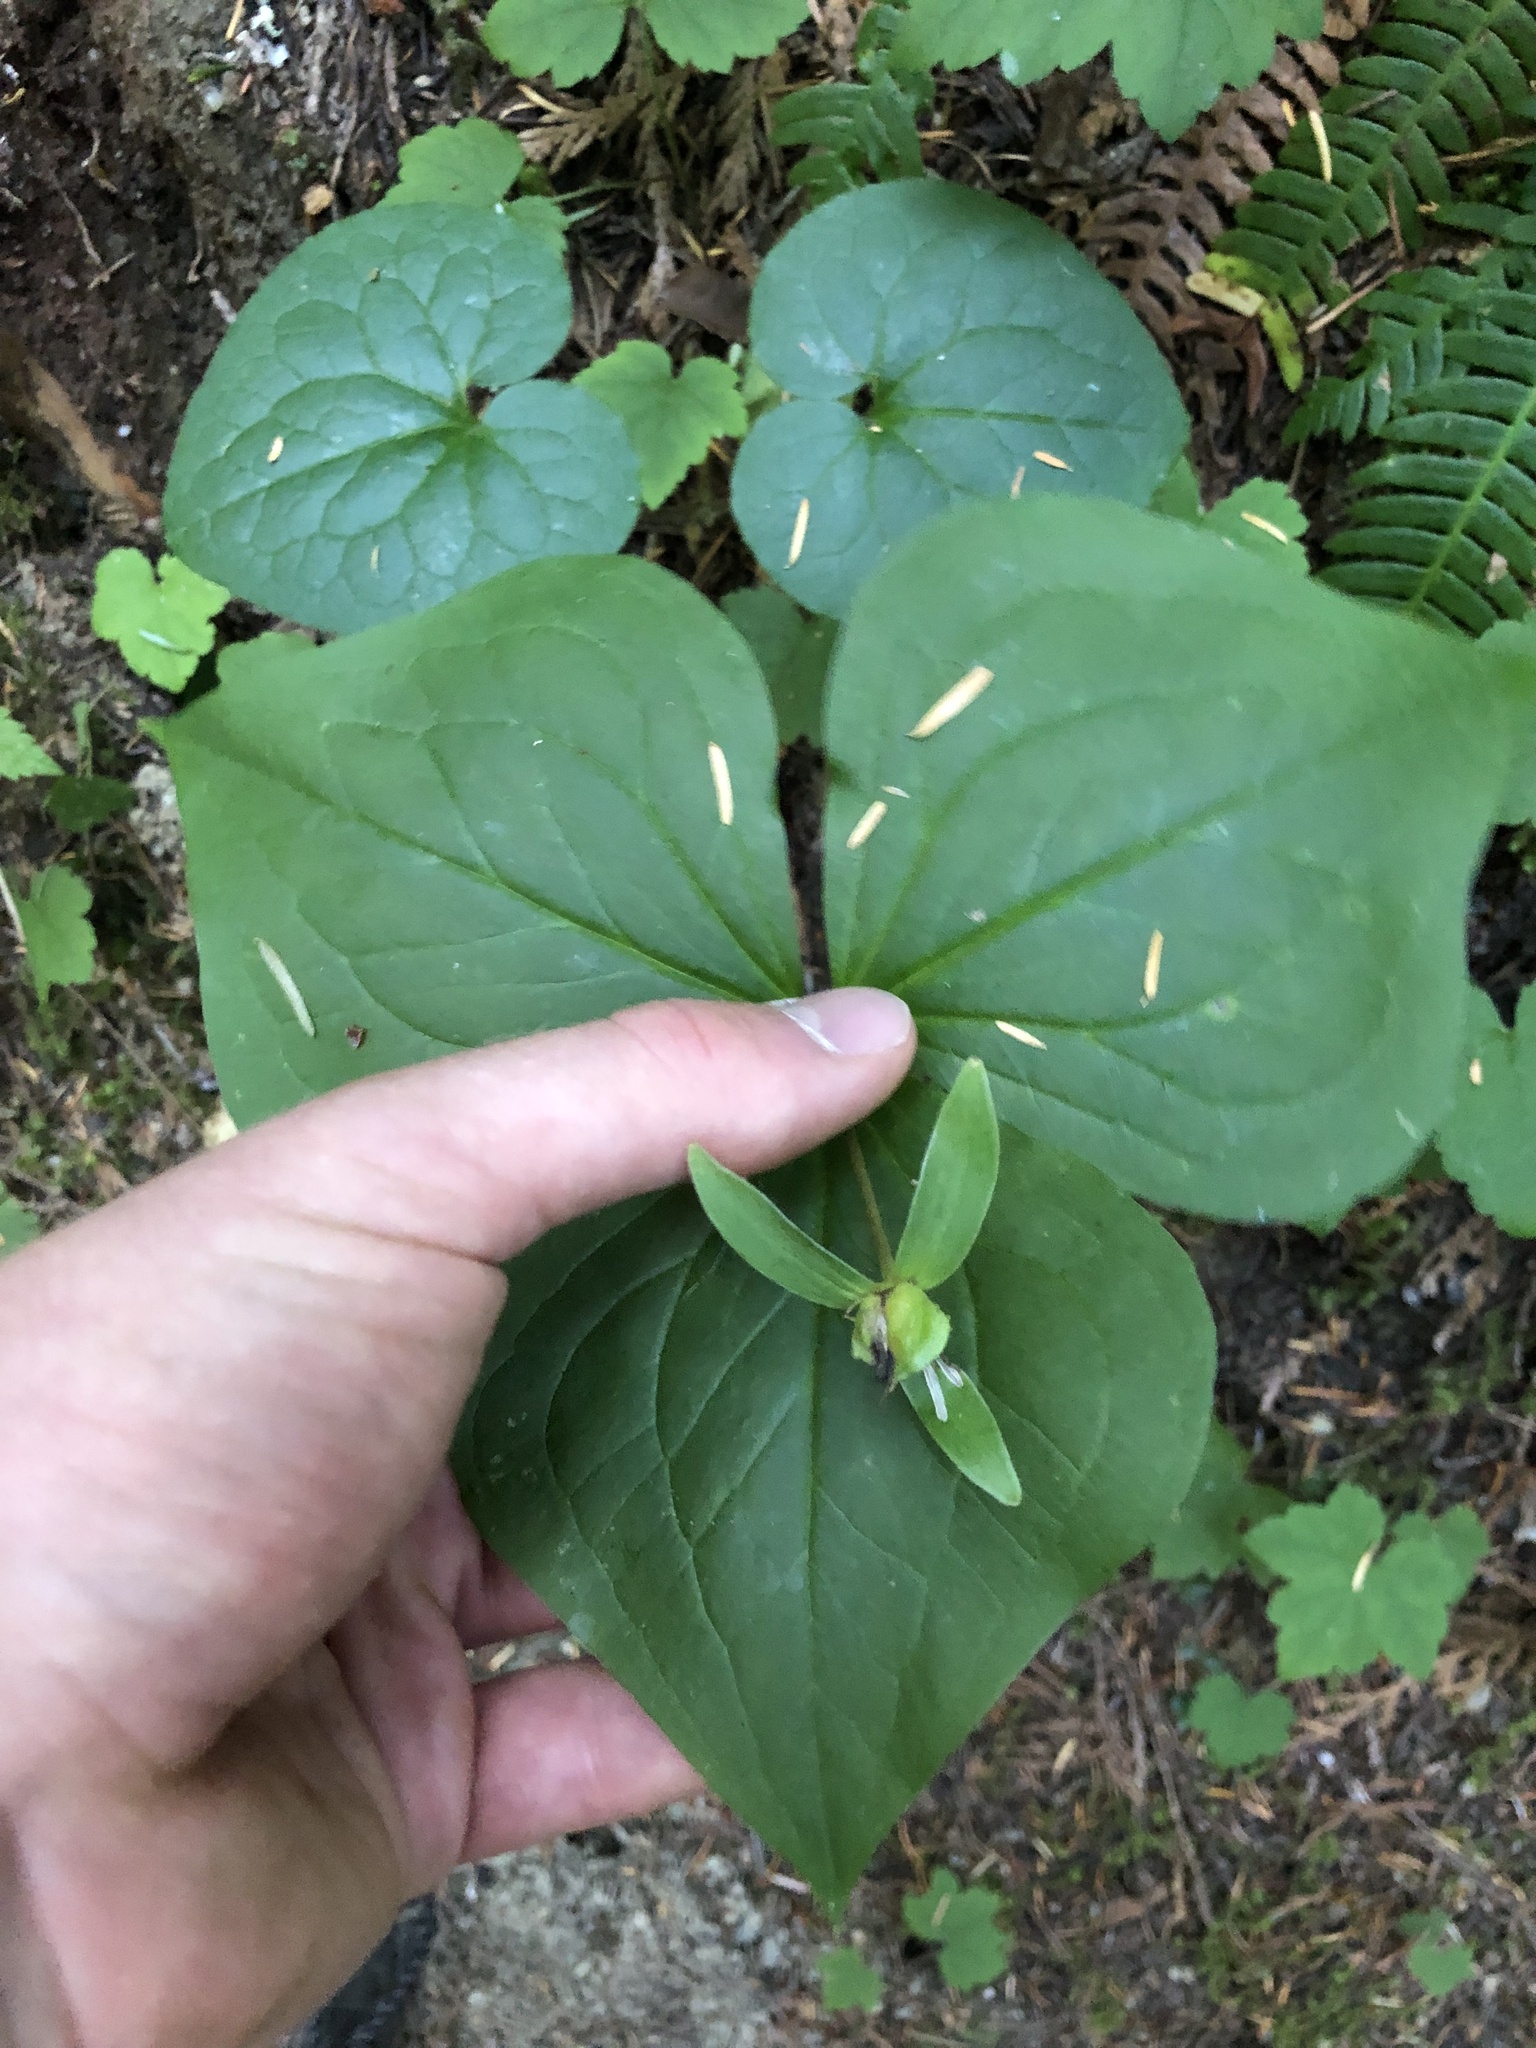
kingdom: Plantae
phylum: Tracheophyta
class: Liliopsida
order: Liliales
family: Melanthiaceae
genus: Trillium
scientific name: Trillium ovatum
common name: Pacific trillium
